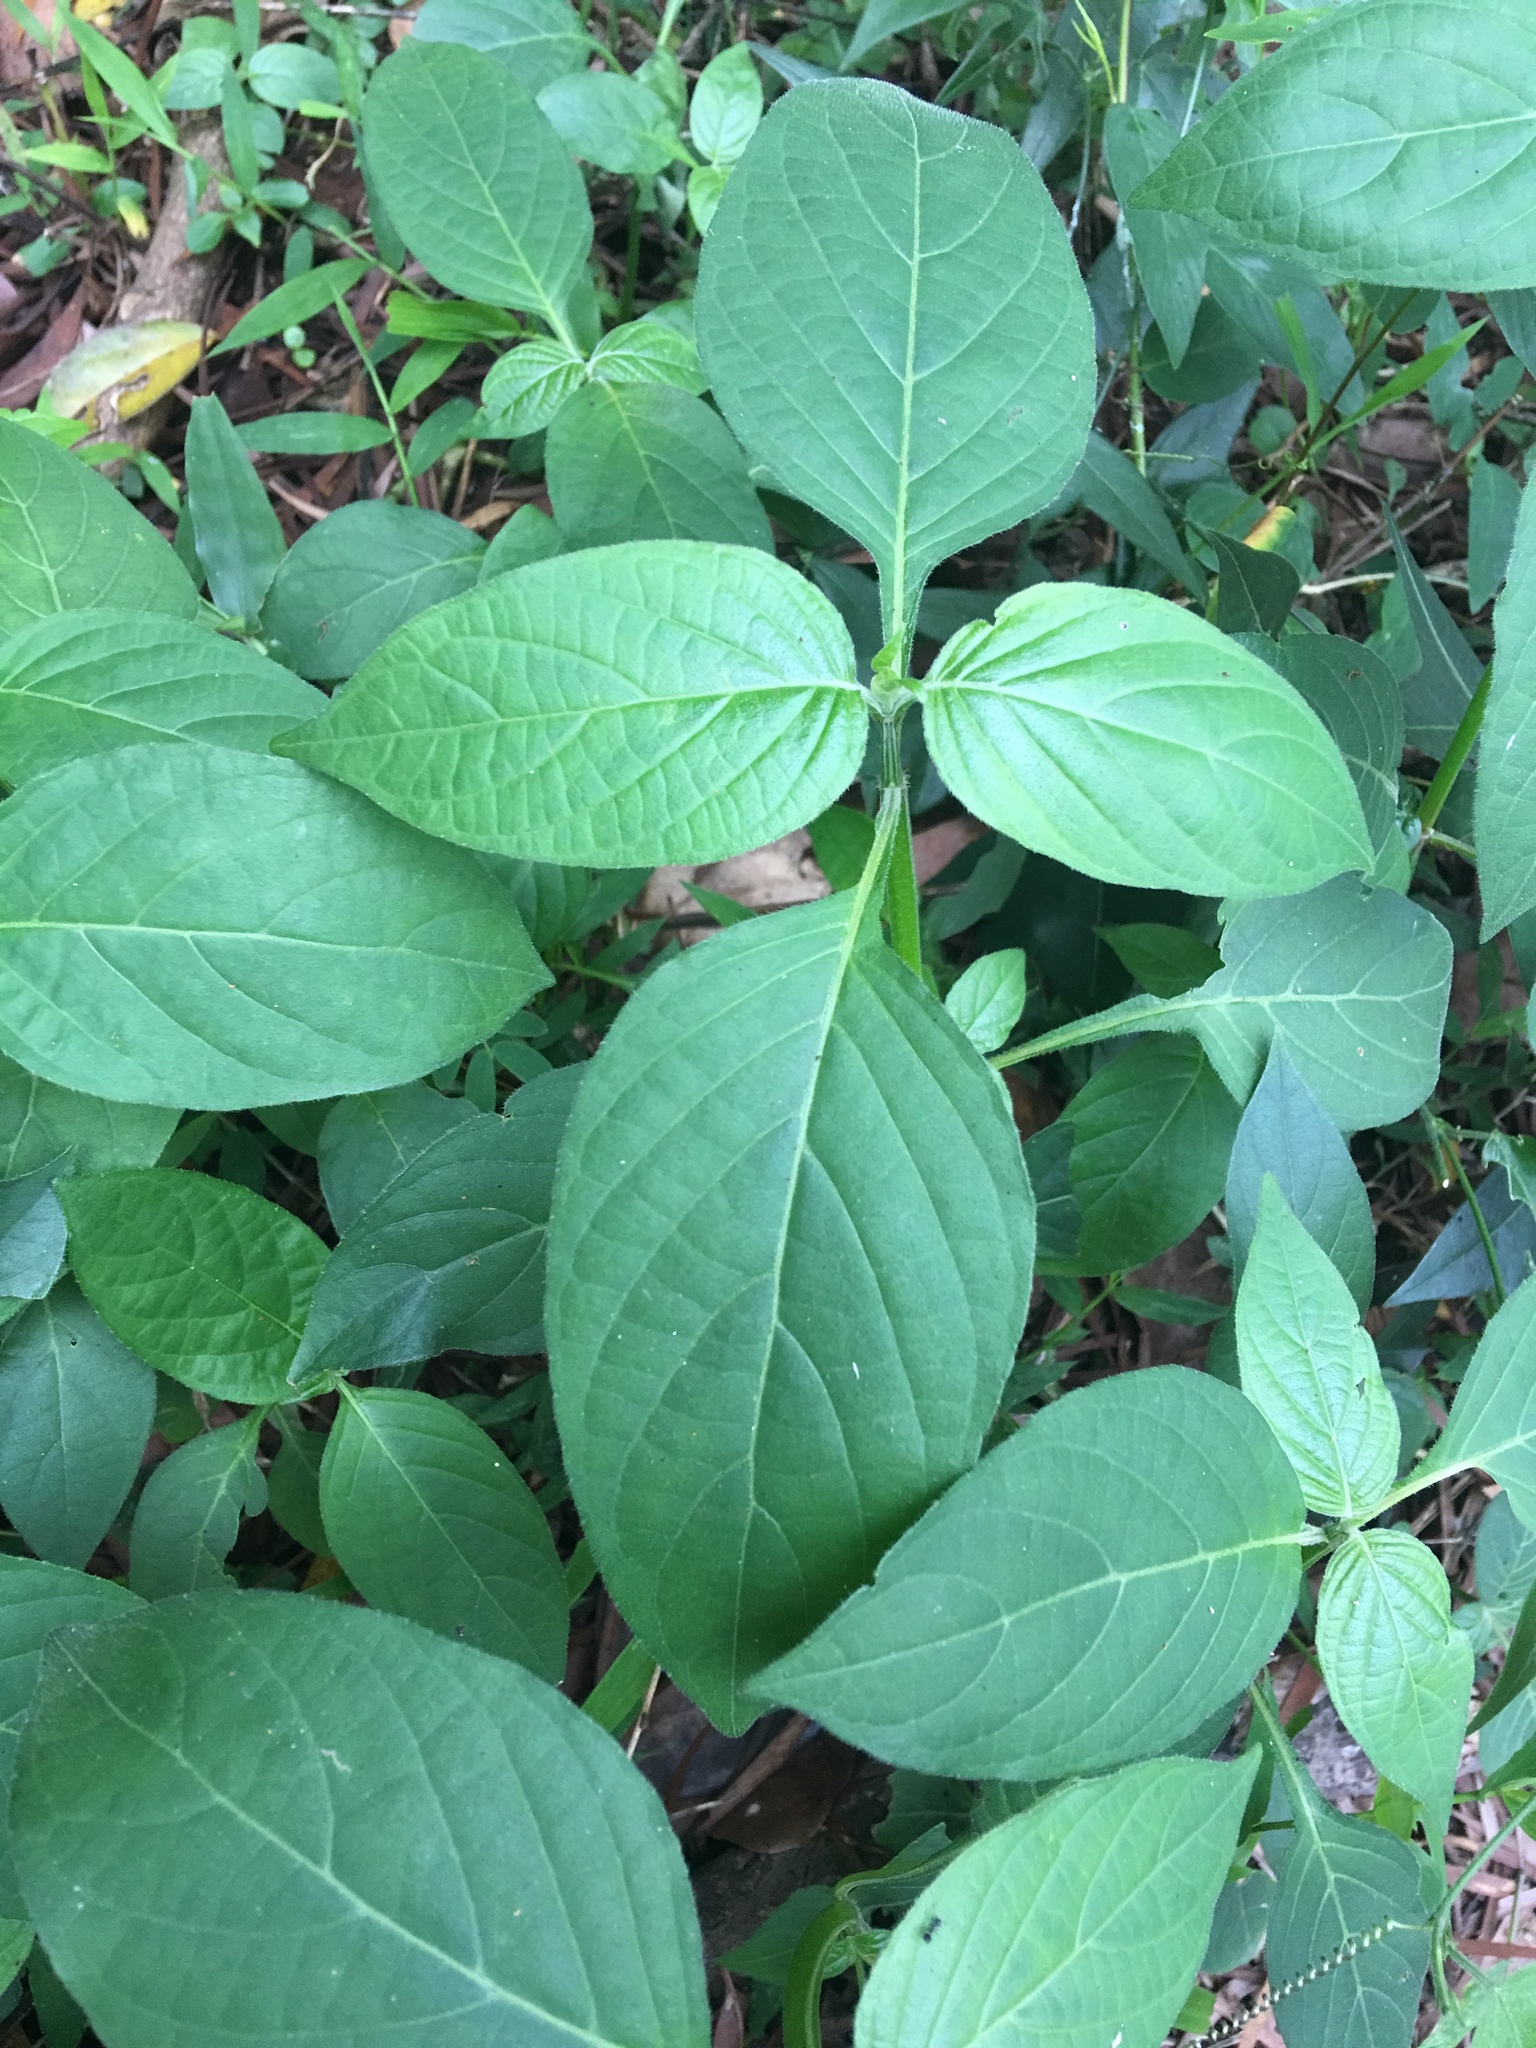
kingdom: Plantae
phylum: Tracheophyta
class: Magnoliopsida
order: Lamiales
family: Acanthaceae
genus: Asystasia
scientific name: Asystasia intrusa
